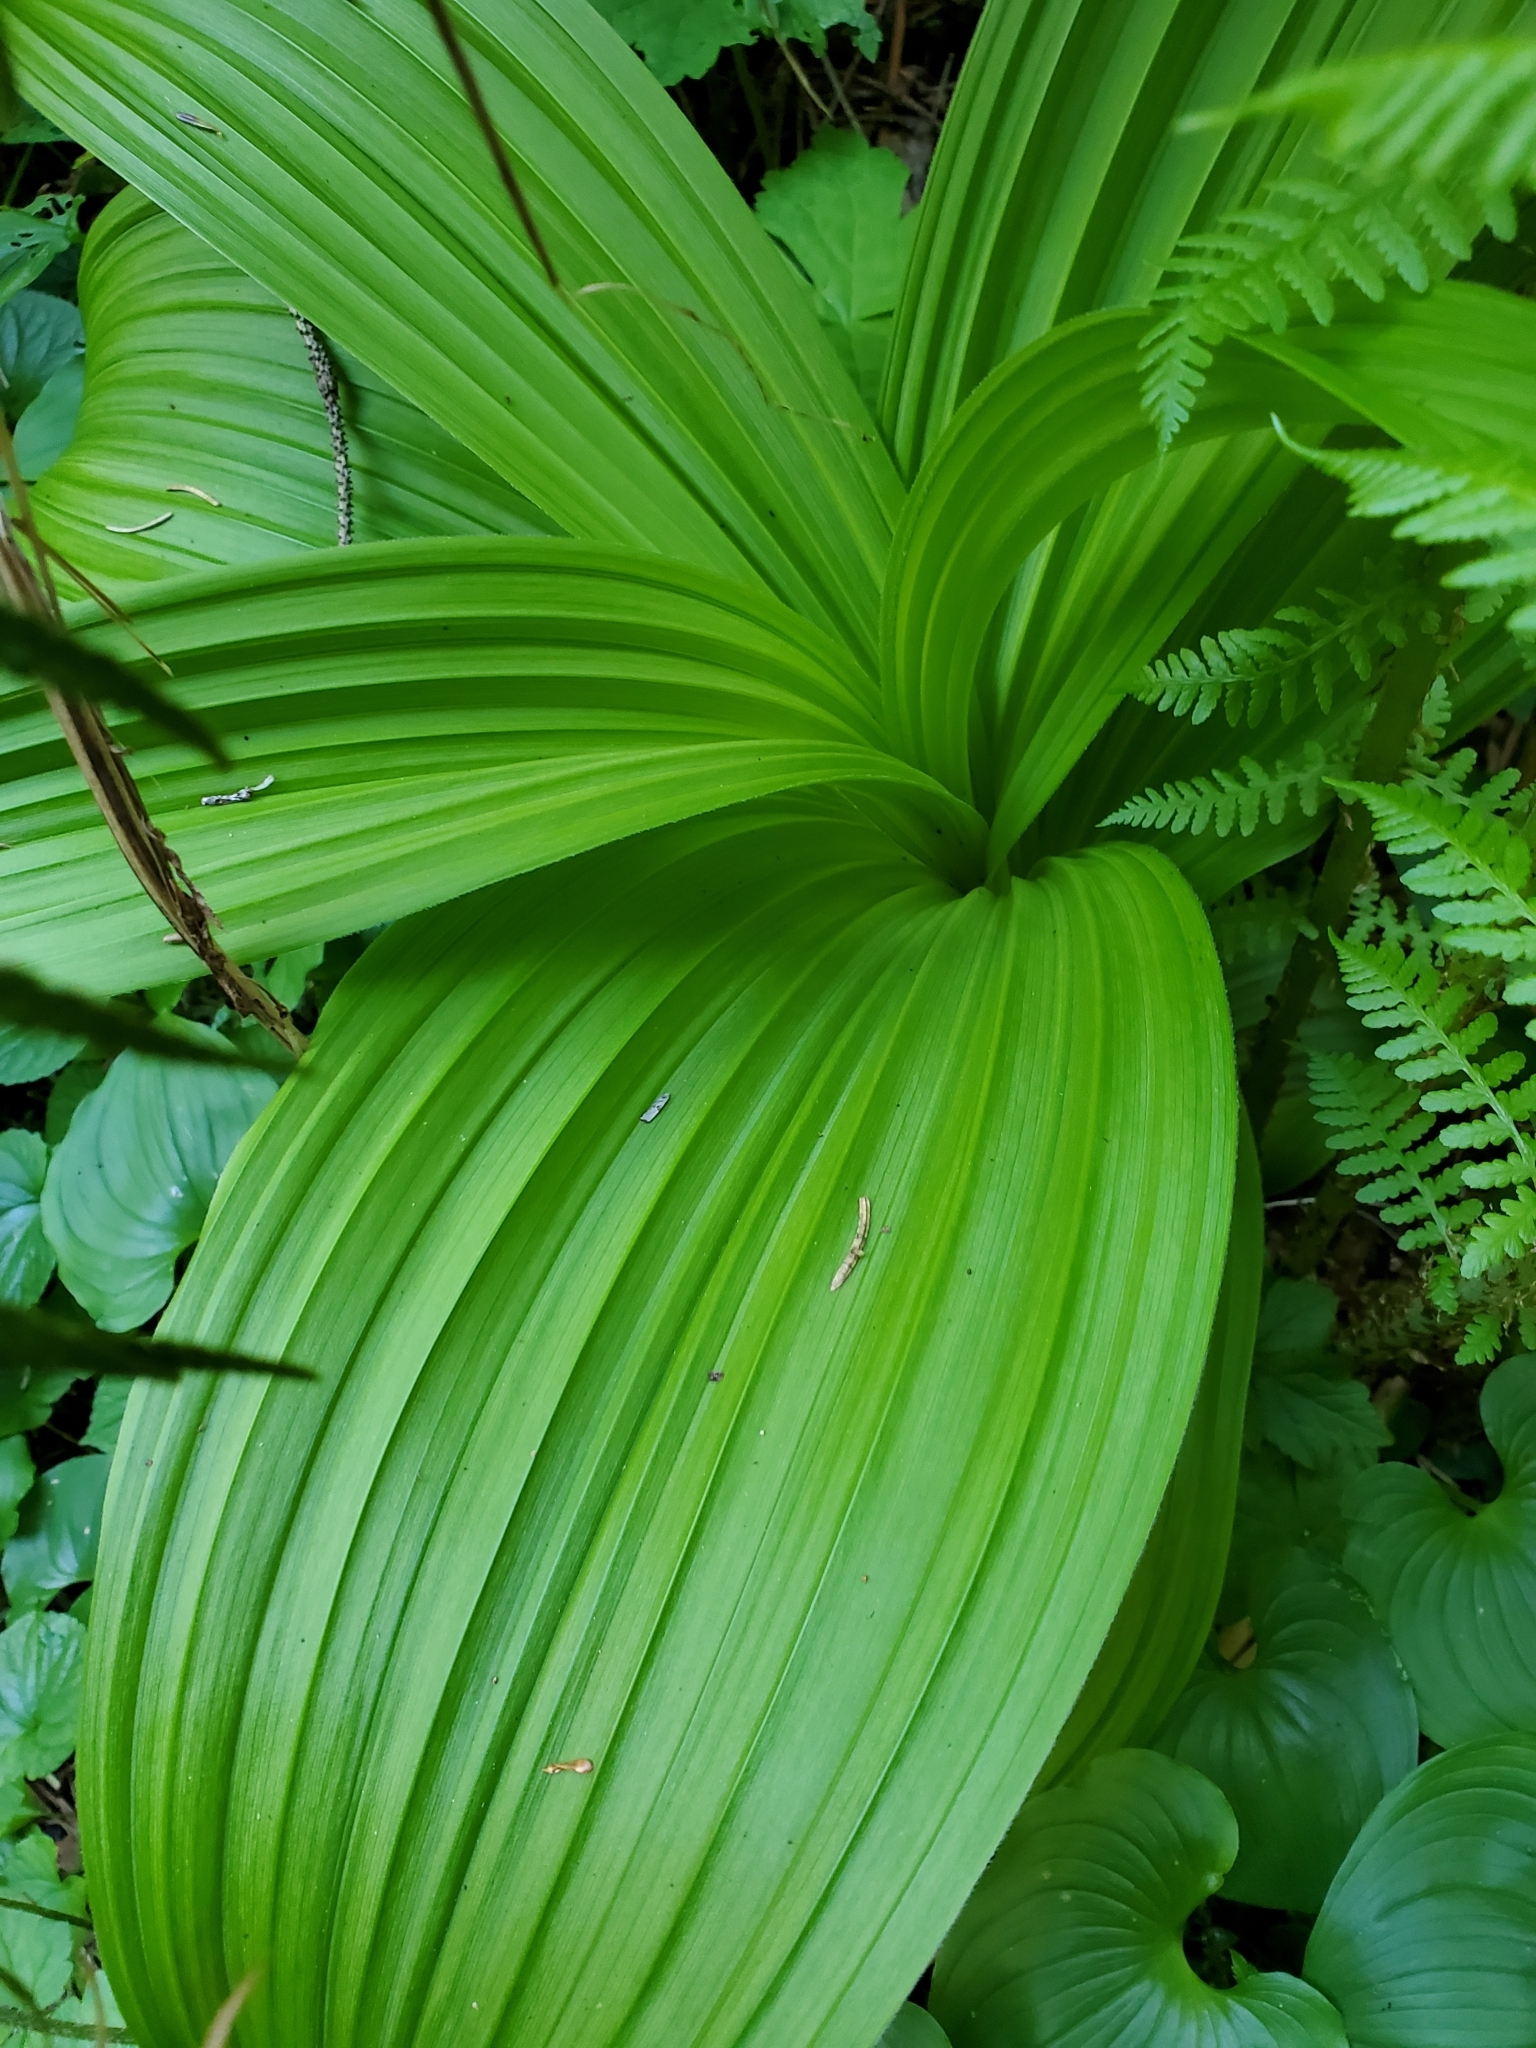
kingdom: Plantae
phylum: Tracheophyta
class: Liliopsida
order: Liliales
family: Melanthiaceae
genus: Veratrum
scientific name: Veratrum viride
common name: American false hellebore
